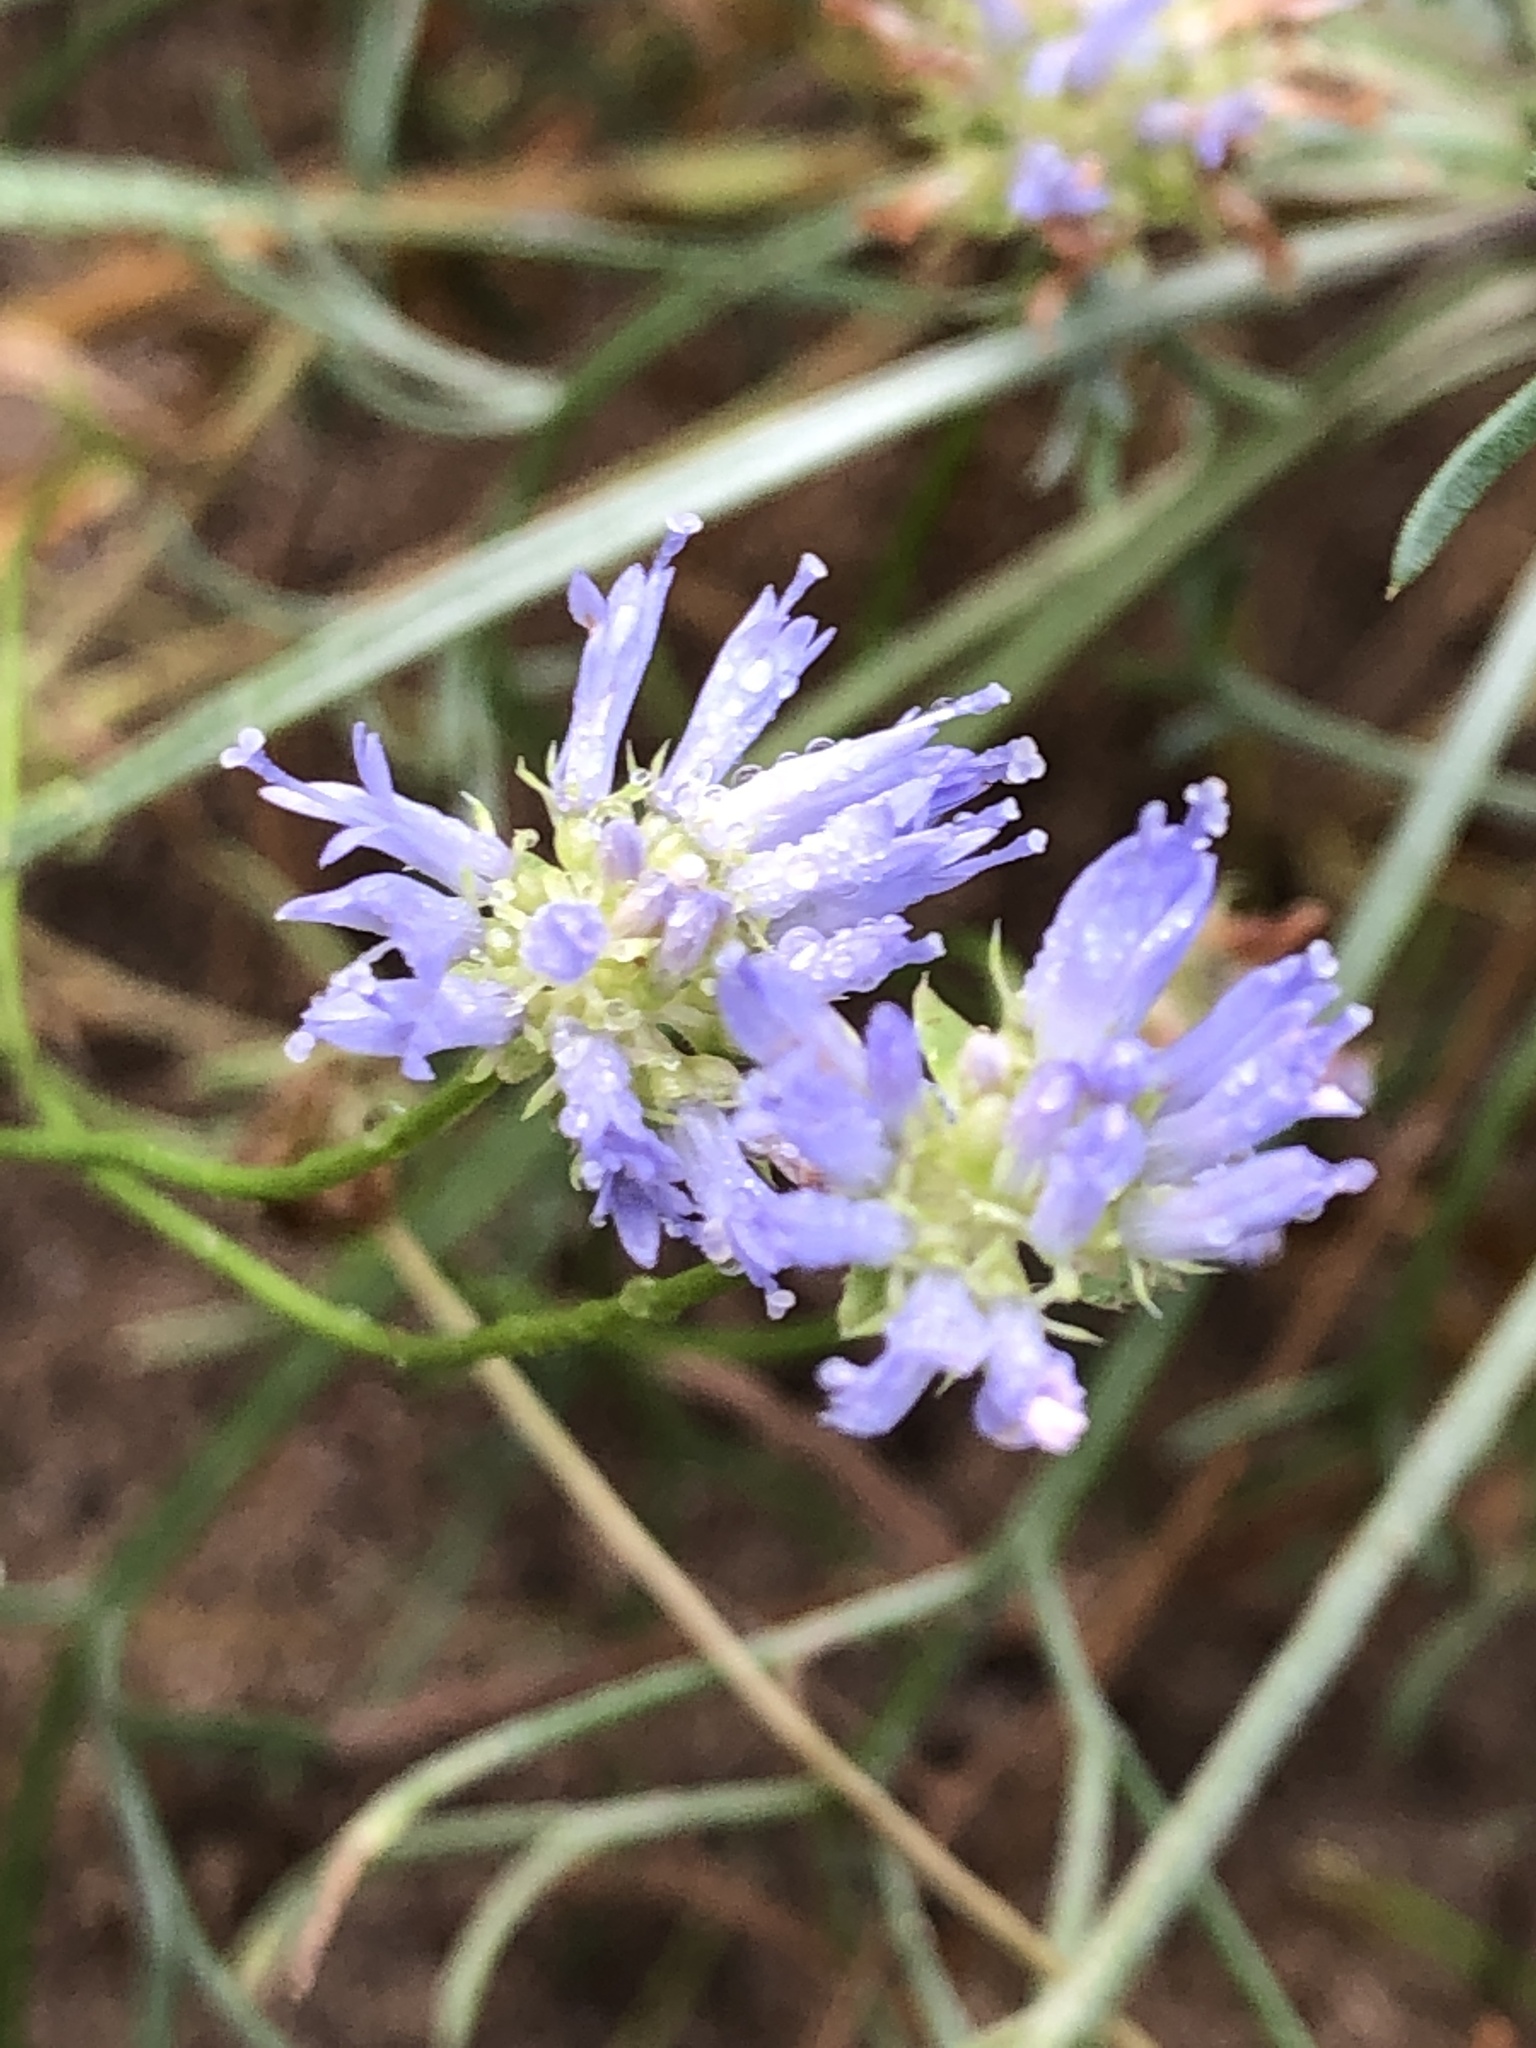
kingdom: Plantae
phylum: Tracheophyta
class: Magnoliopsida
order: Asterales
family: Campanulaceae
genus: Jasione
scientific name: Jasione montana
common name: Sheep's-bit
